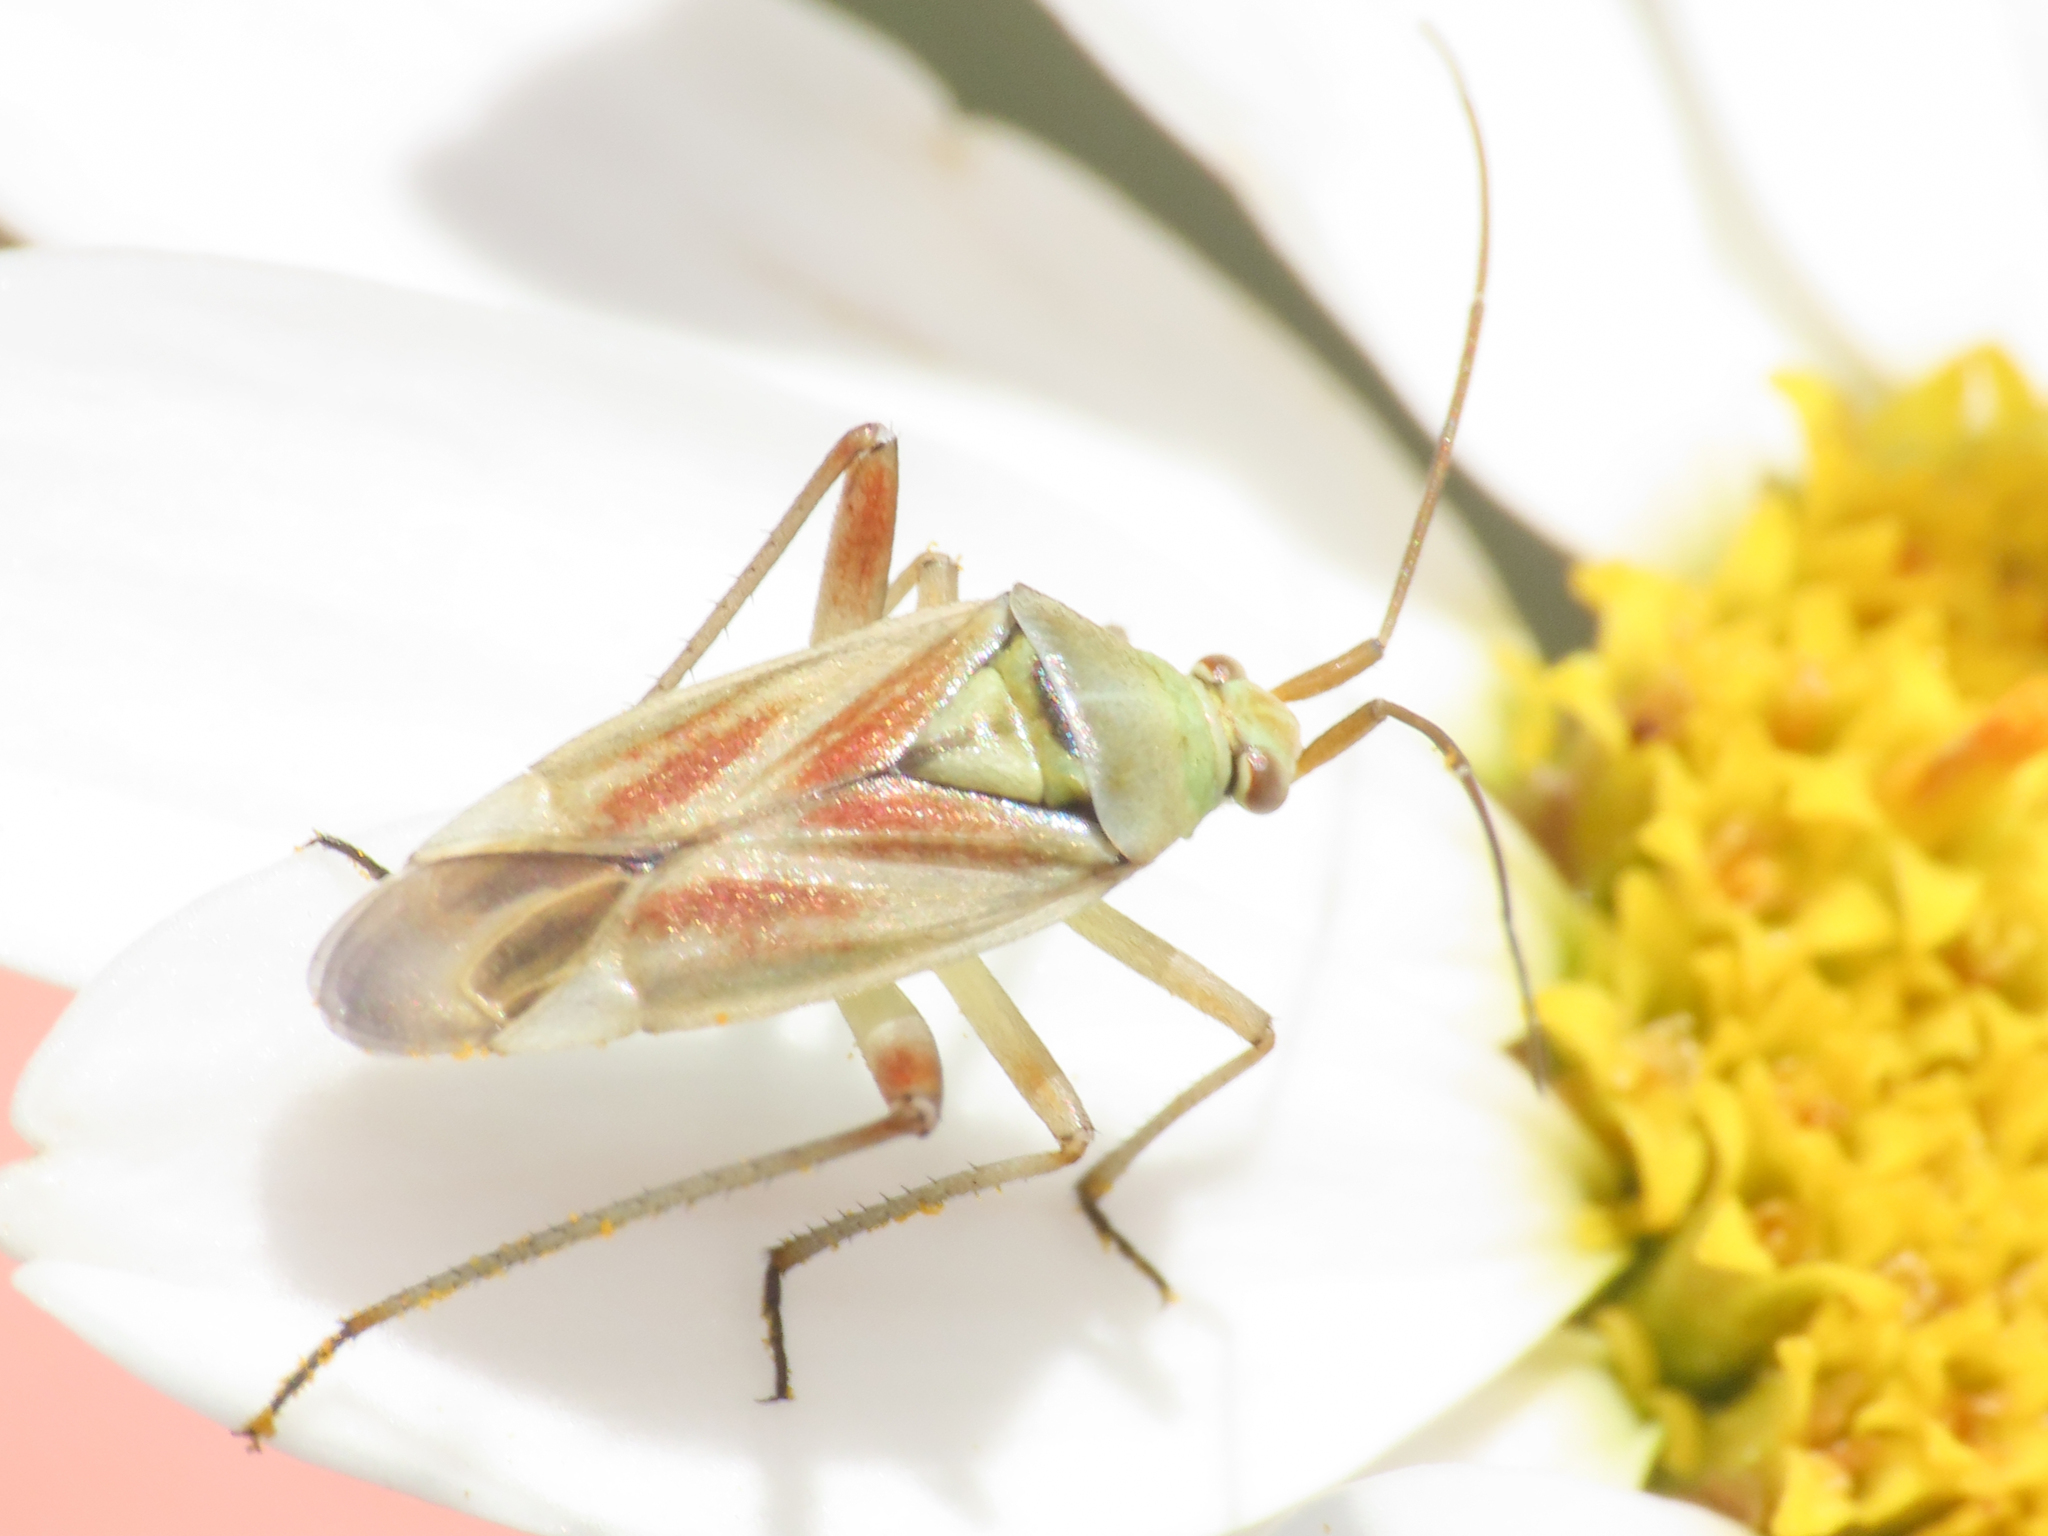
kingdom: Animalia
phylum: Arthropoda
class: Insecta
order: Hemiptera
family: Miridae
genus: Calocoris
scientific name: Calocoris roseomaculatus
